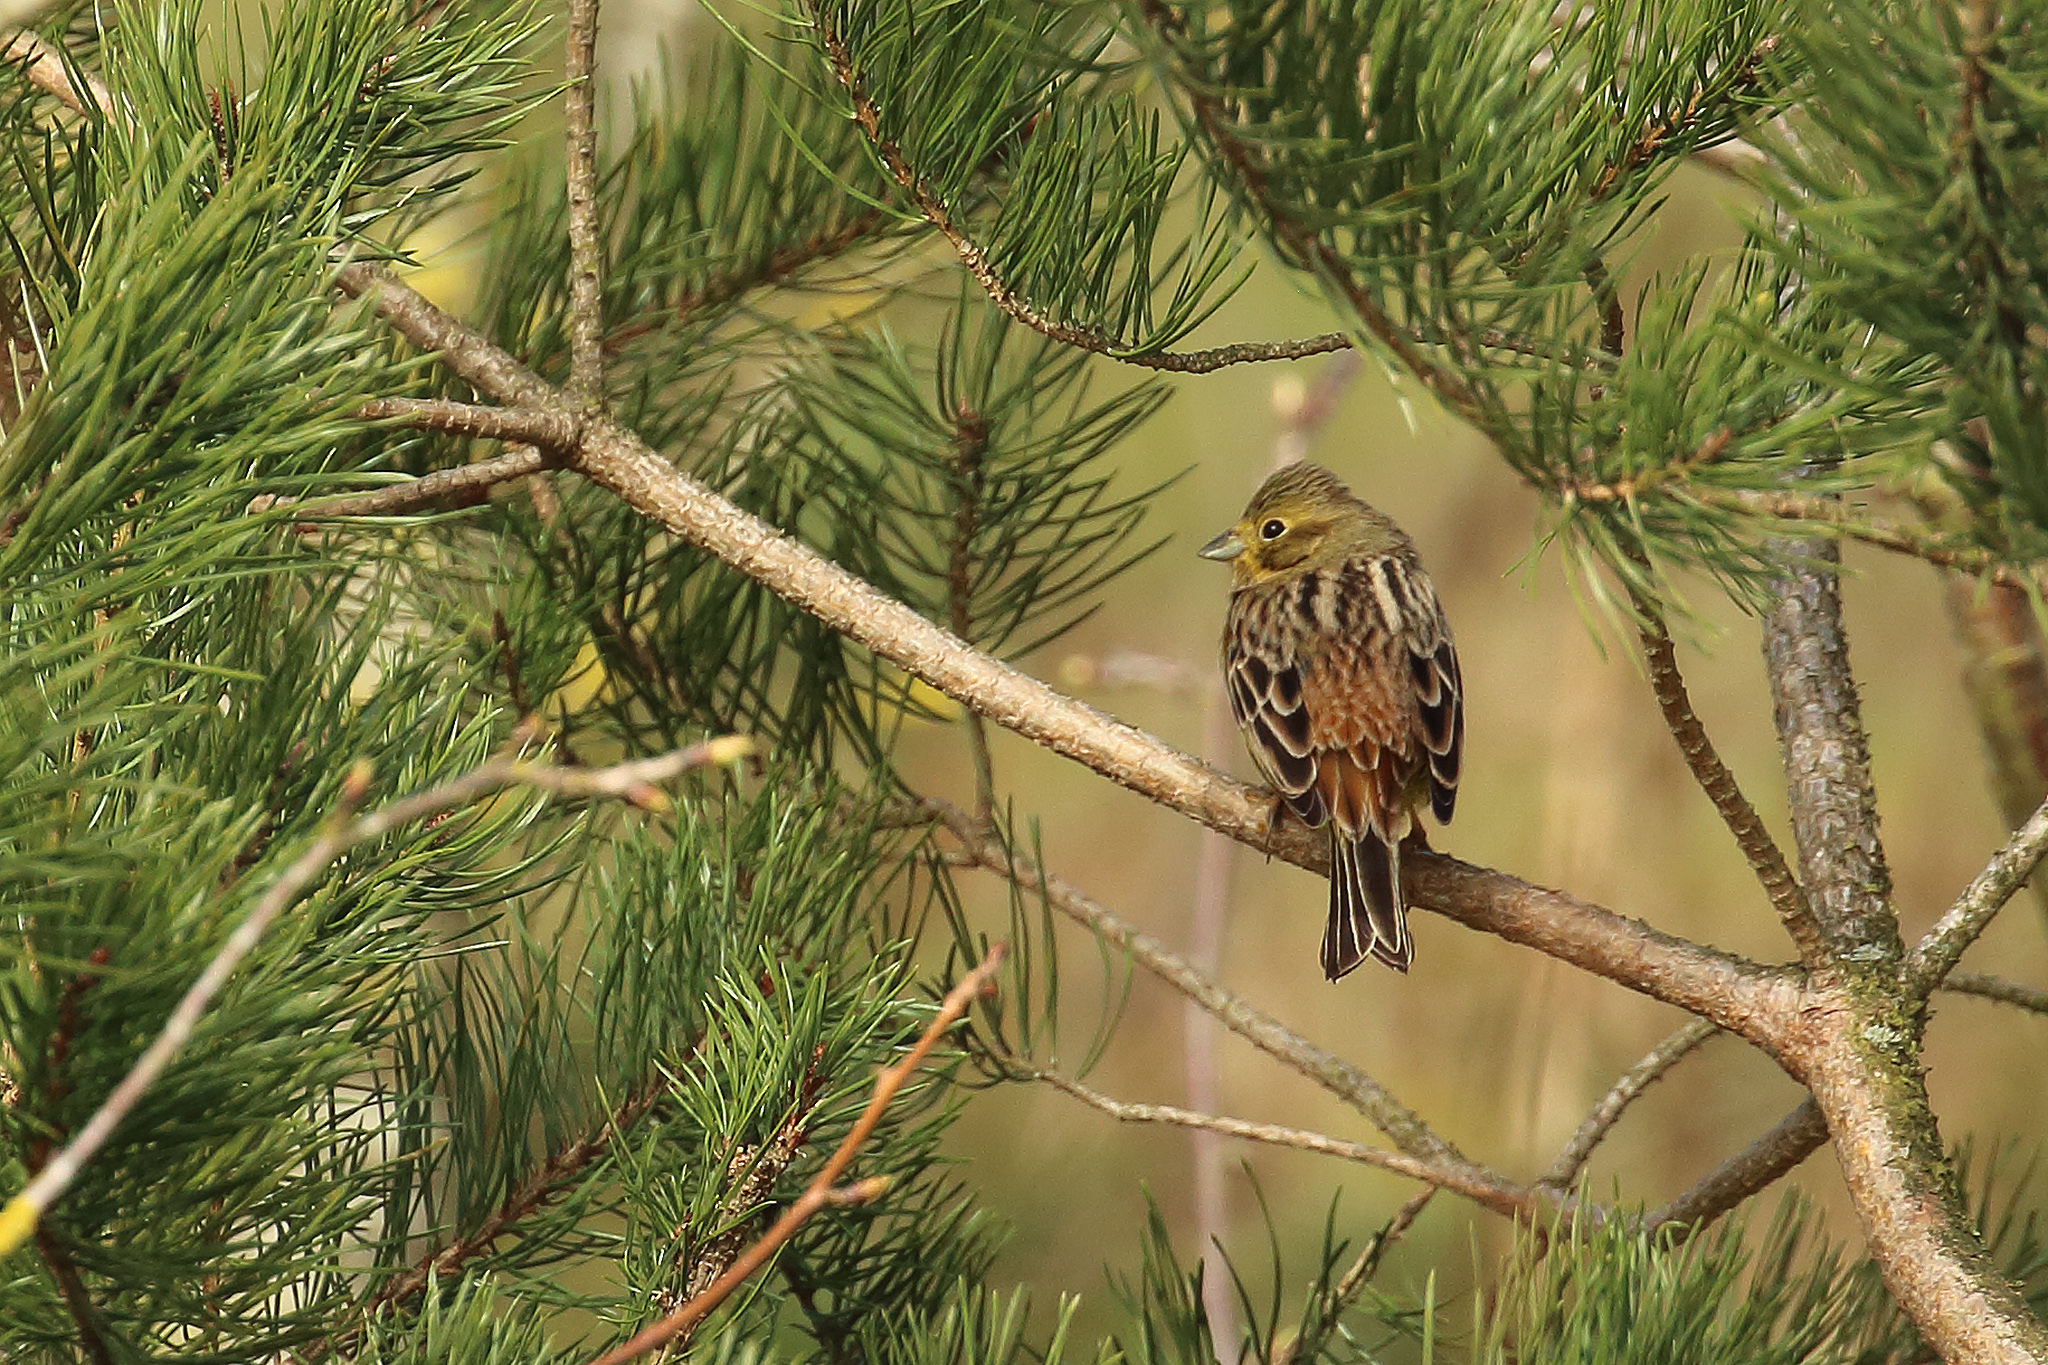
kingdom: Animalia
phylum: Chordata
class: Aves
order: Passeriformes
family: Emberizidae
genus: Emberiza
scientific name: Emberiza citrinella
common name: Yellowhammer
